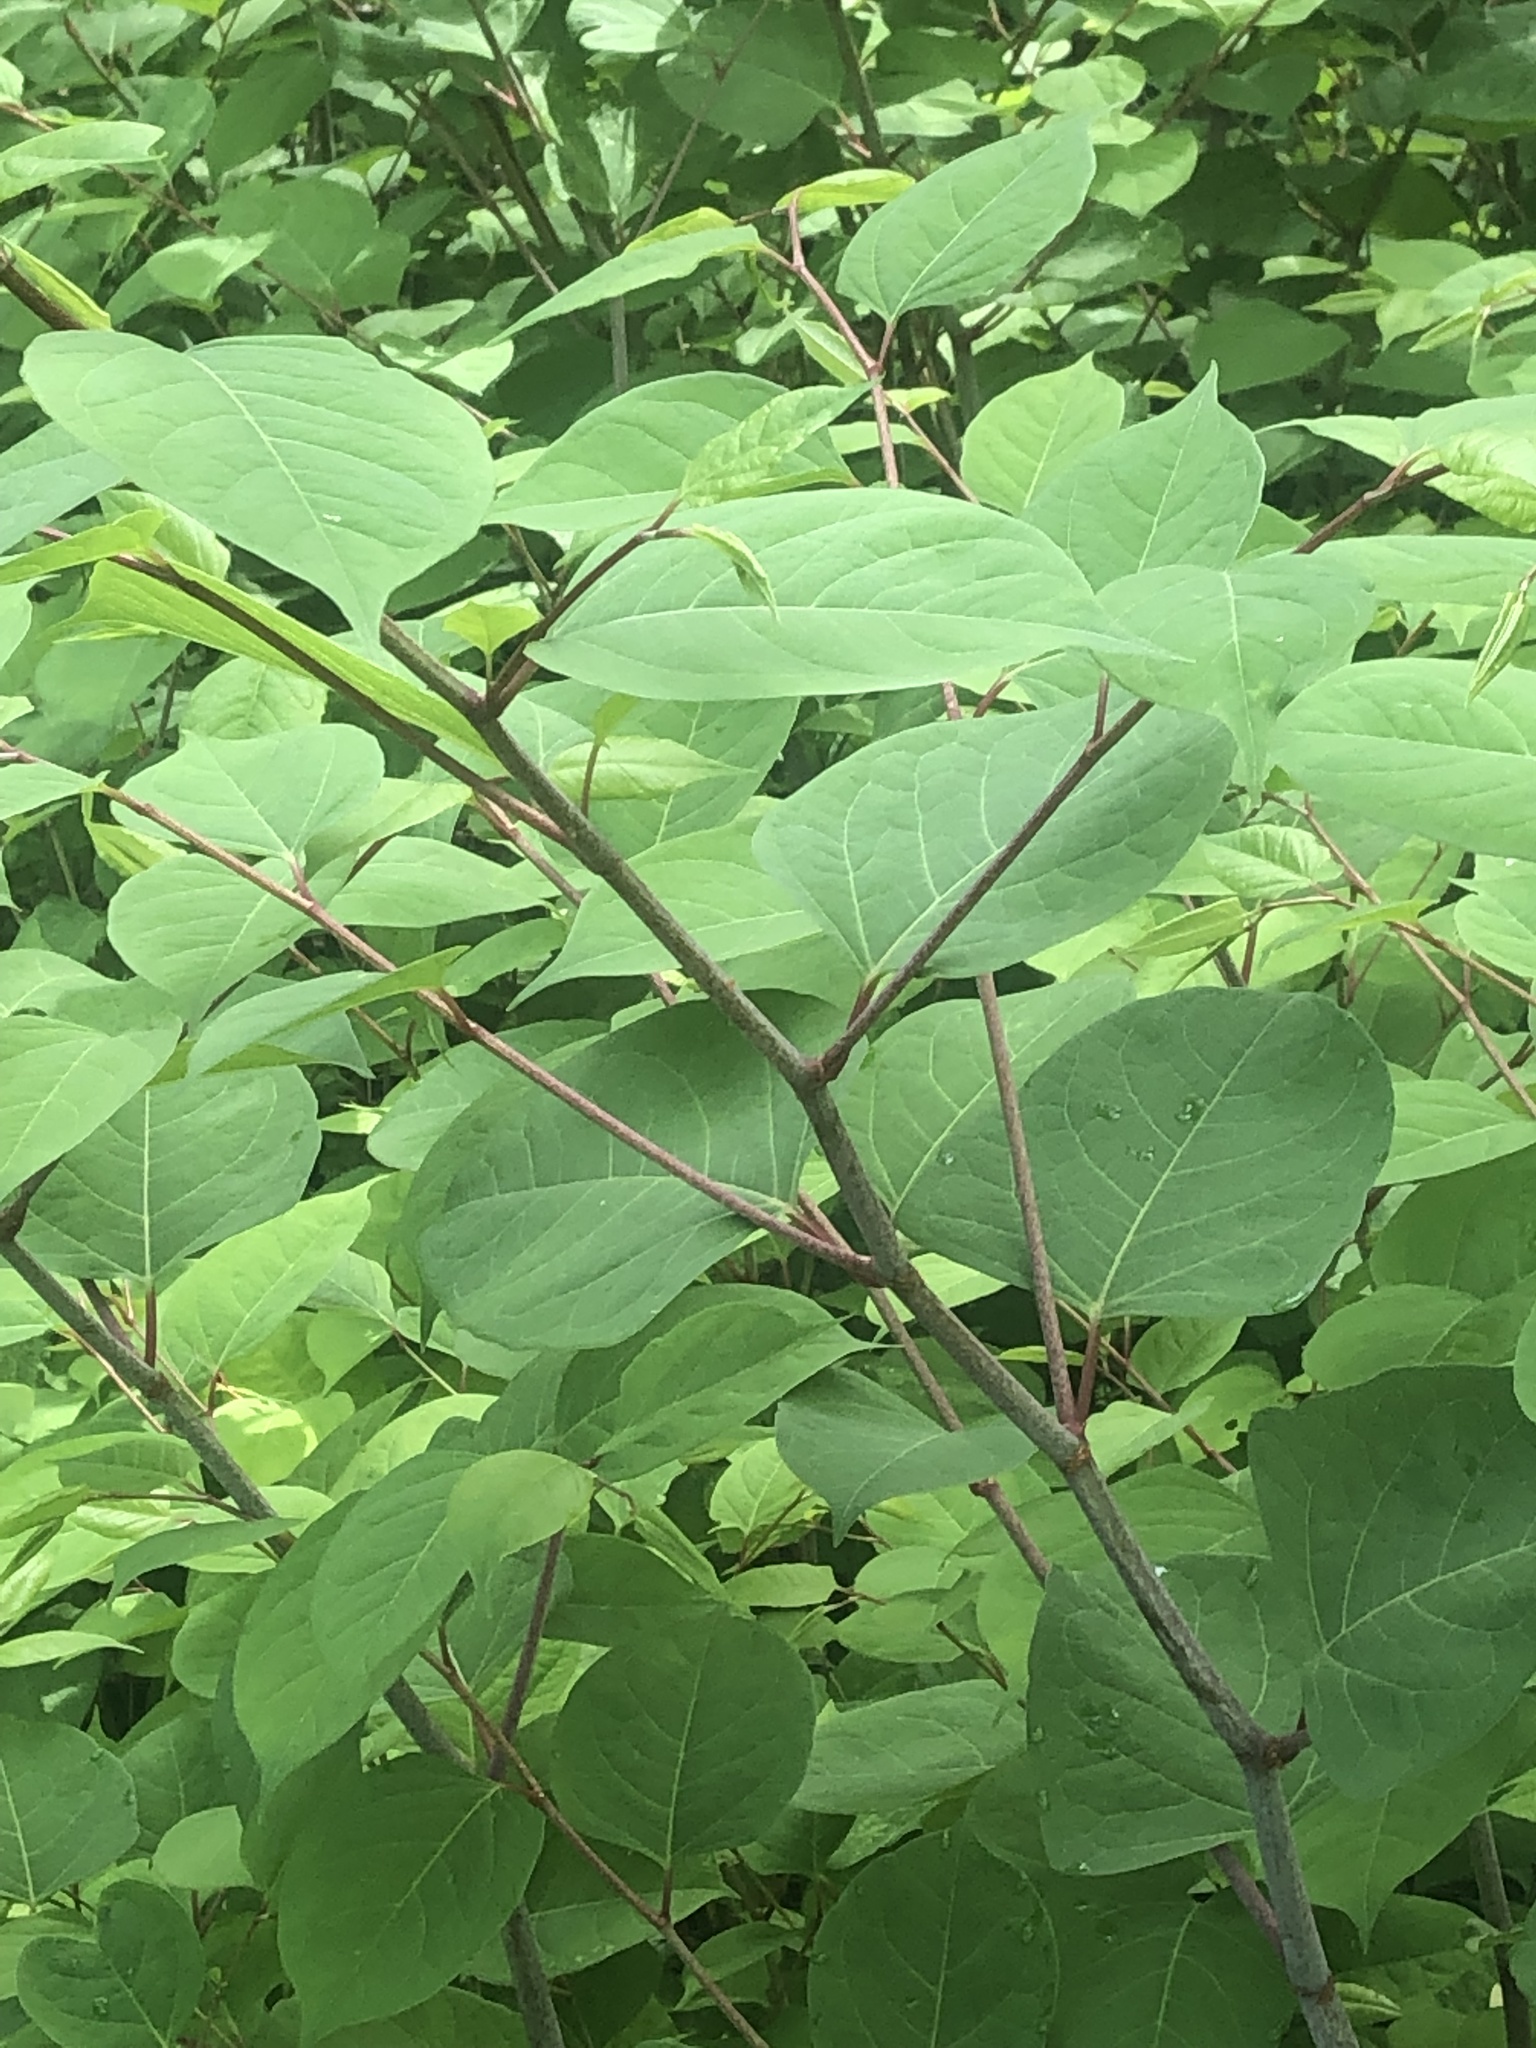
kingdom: Plantae
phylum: Tracheophyta
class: Magnoliopsida
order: Caryophyllales
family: Polygonaceae
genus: Reynoutria
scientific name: Reynoutria japonica
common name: Japanese knotweed
